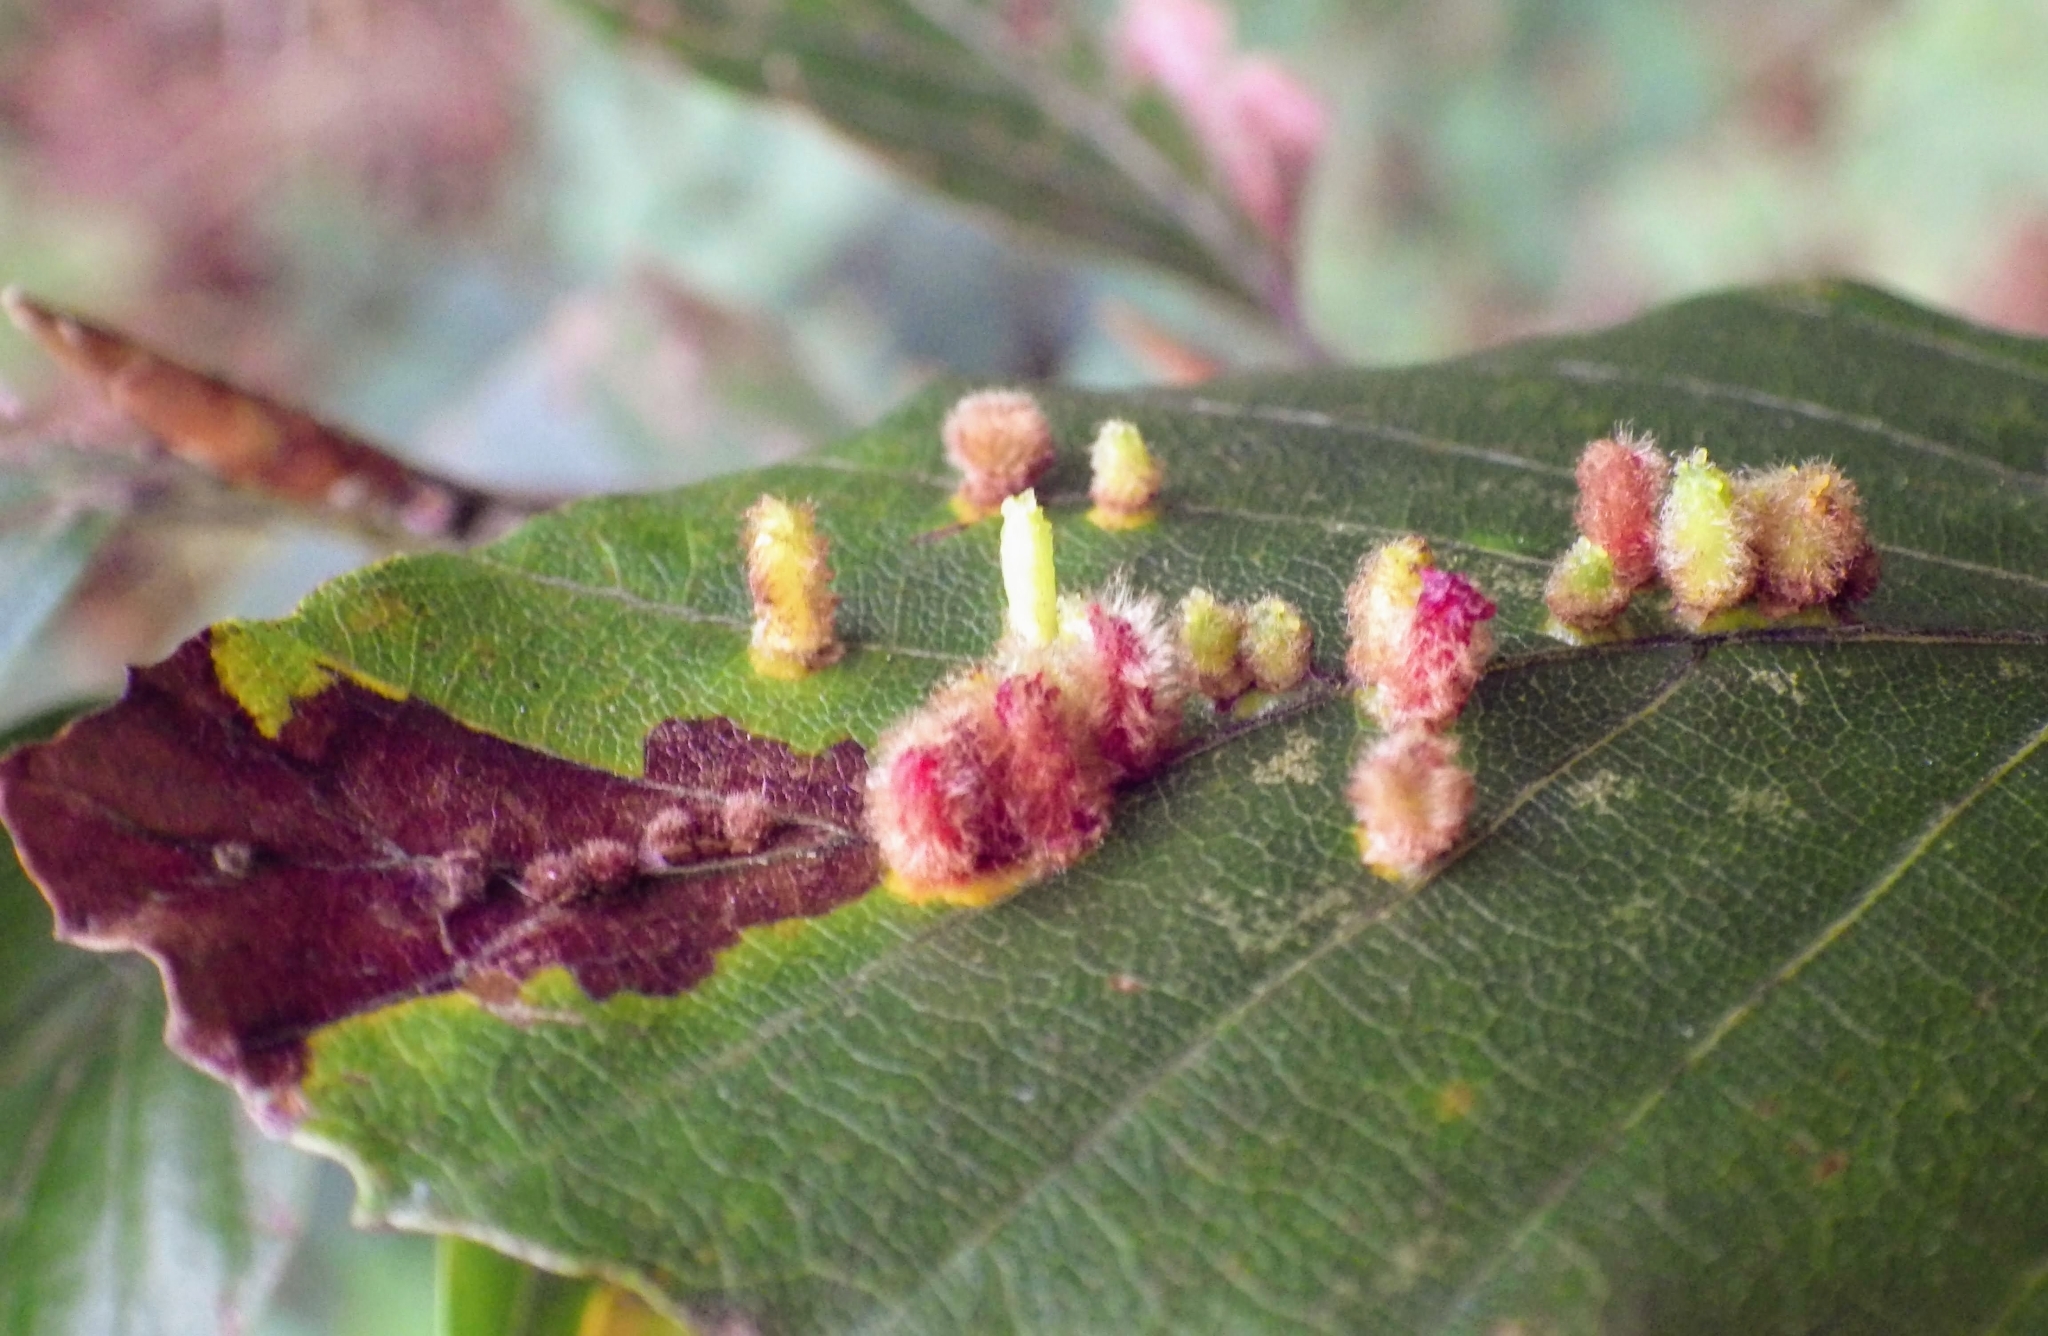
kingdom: Animalia
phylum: Arthropoda
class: Insecta
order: Diptera
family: Cecidomyiidae
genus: Hartigiola
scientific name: Hartigiola annulipes
